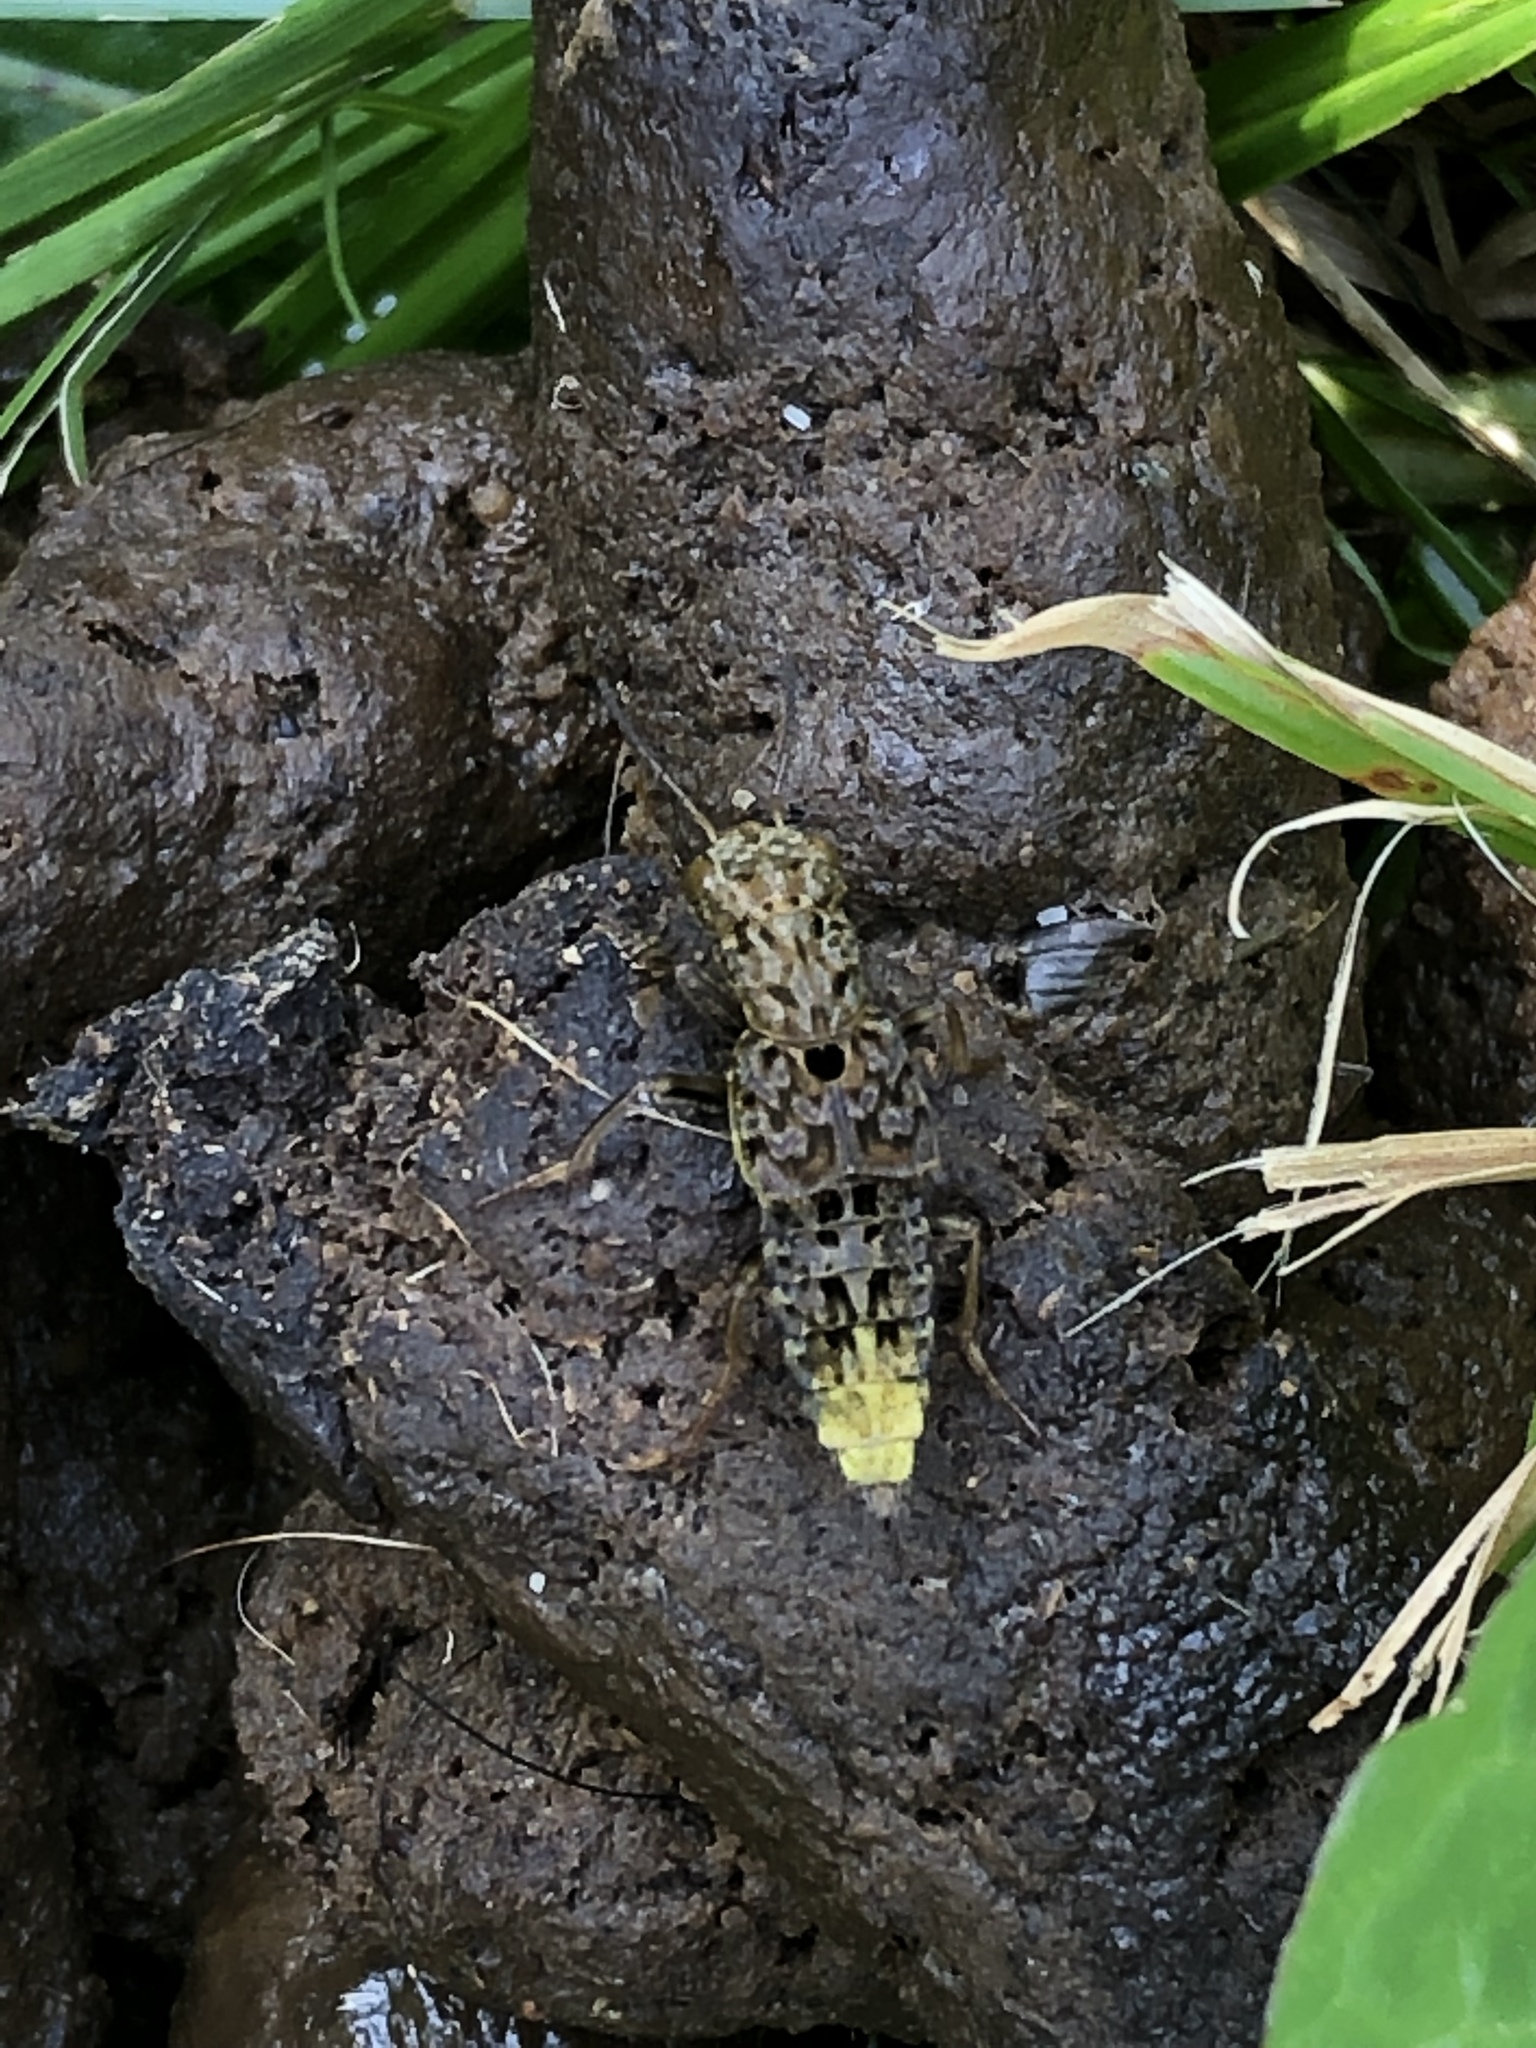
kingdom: Animalia
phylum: Arthropoda
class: Insecta
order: Coleoptera
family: Staphylinidae
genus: Ontholestes
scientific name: Ontholestes cingulatus
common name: Gold-and-brown rove beetle
